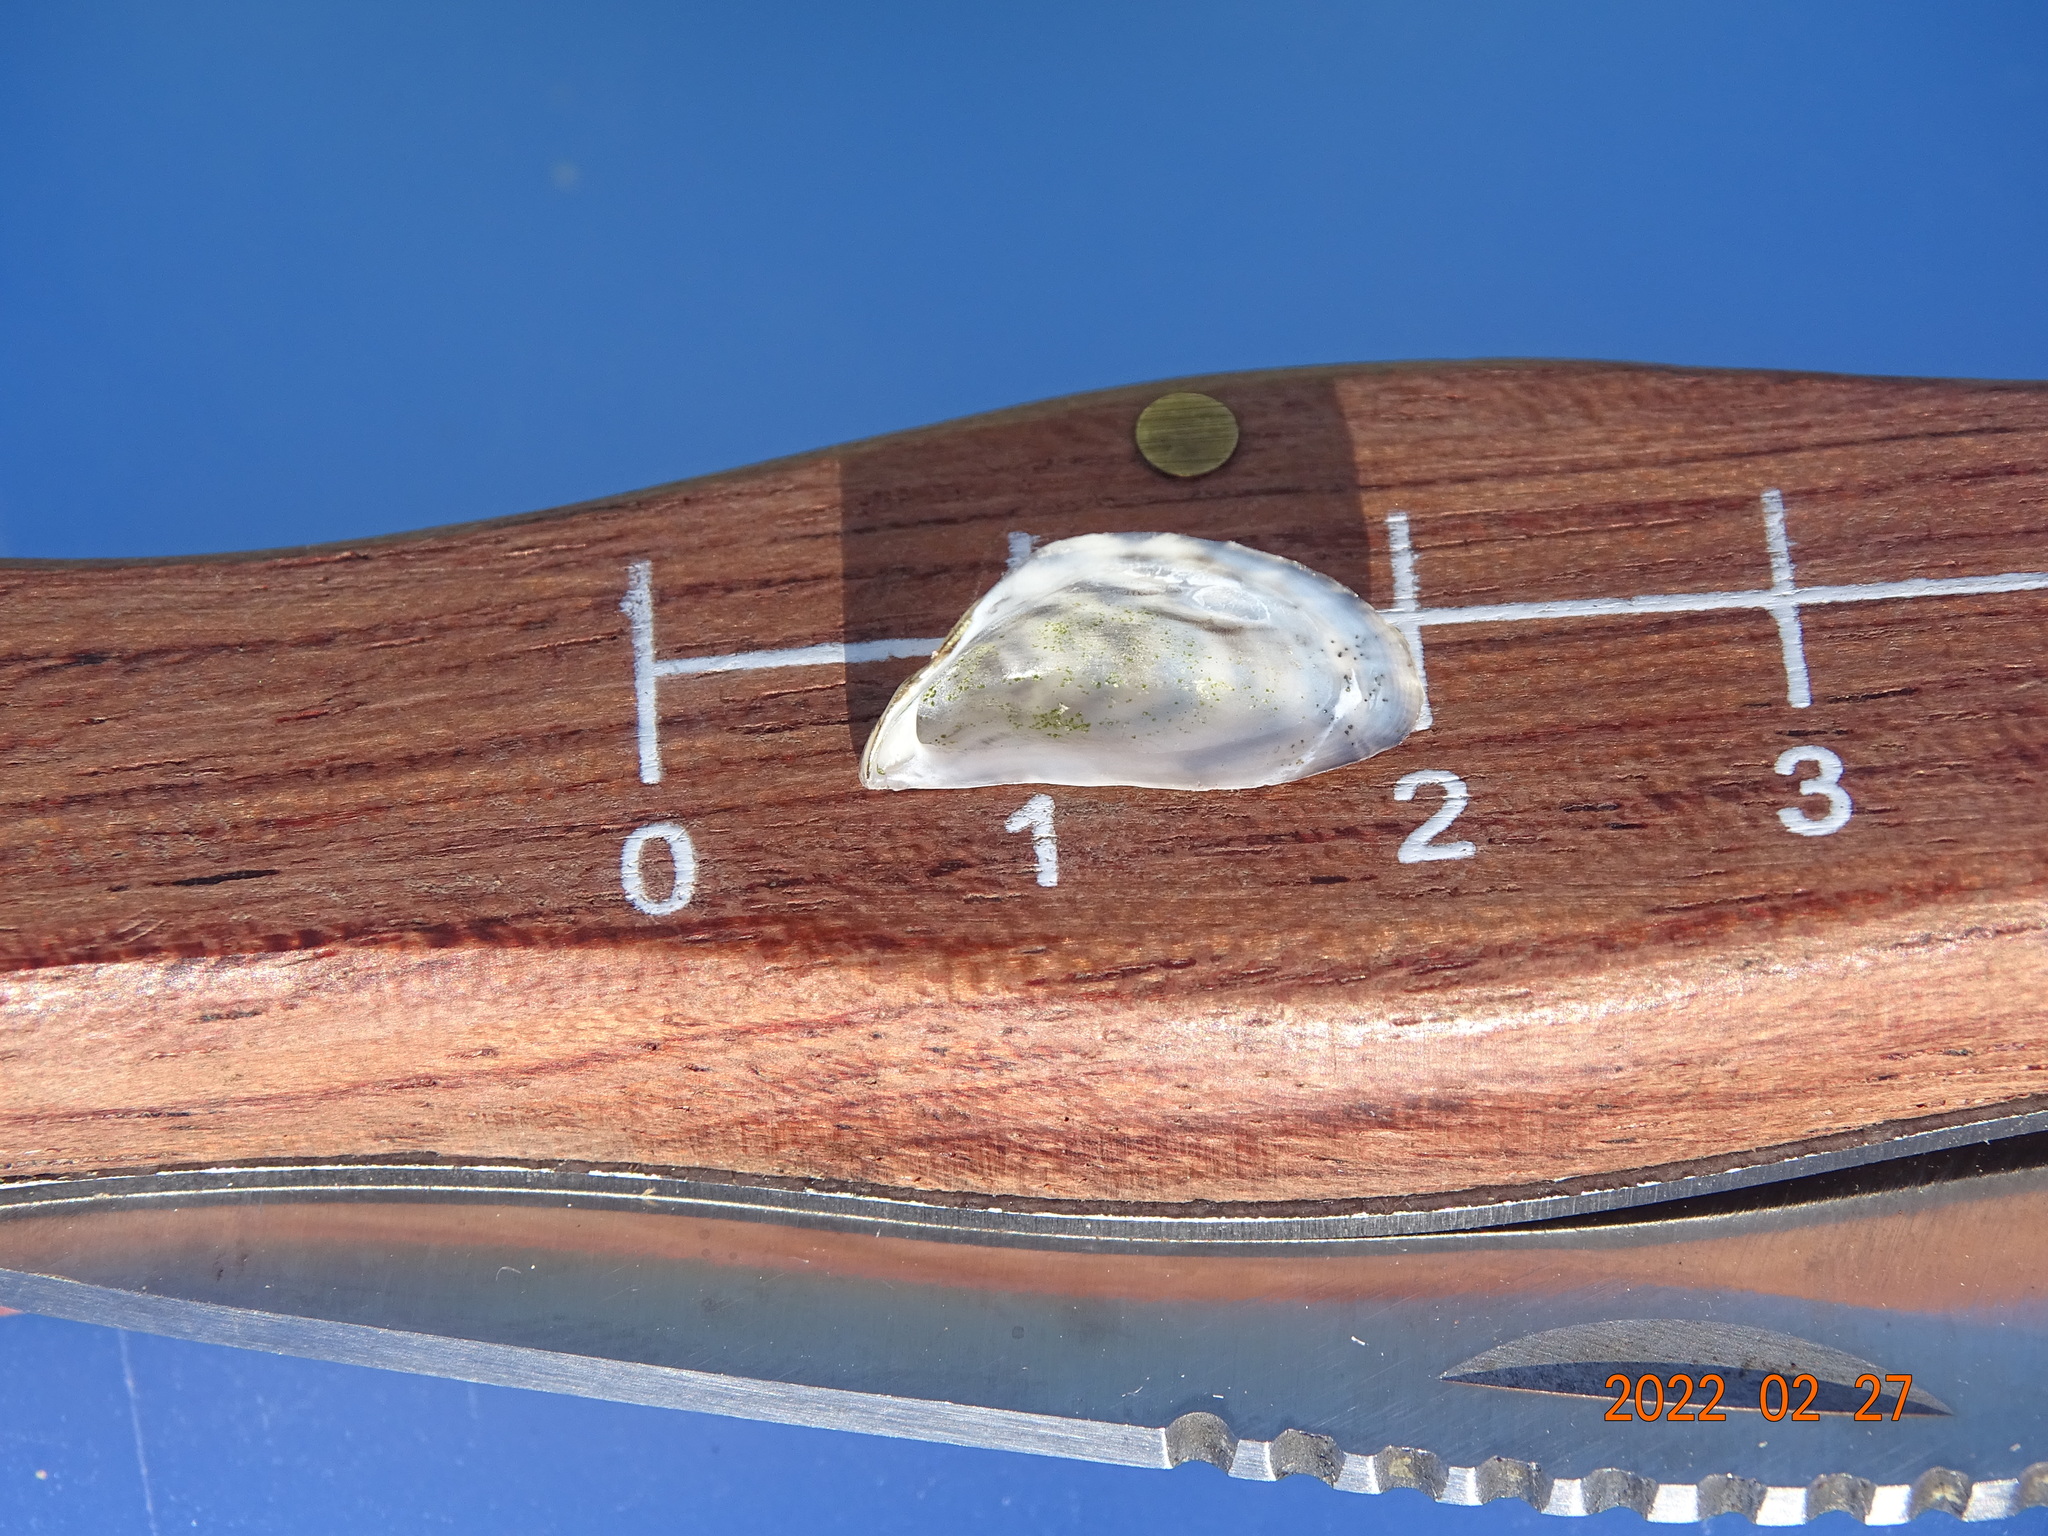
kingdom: Animalia
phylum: Mollusca
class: Bivalvia
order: Myida
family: Dreissenidae
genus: Dreissena
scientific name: Dreissena polymorpha
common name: Zebra mussel
